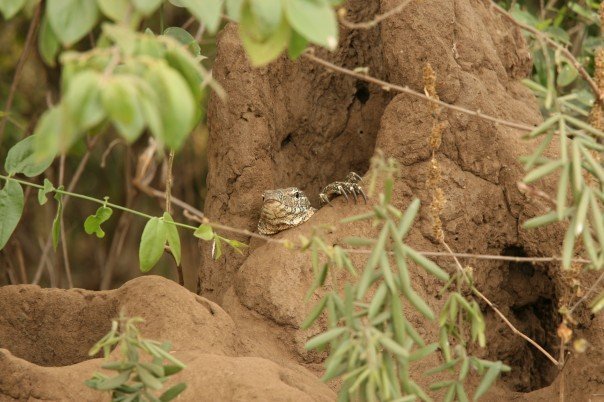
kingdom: Animalia
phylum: Chordata
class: Squamata
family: Varanidae
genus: Varanus
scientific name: Varanus niloticus
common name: Nile monitor
